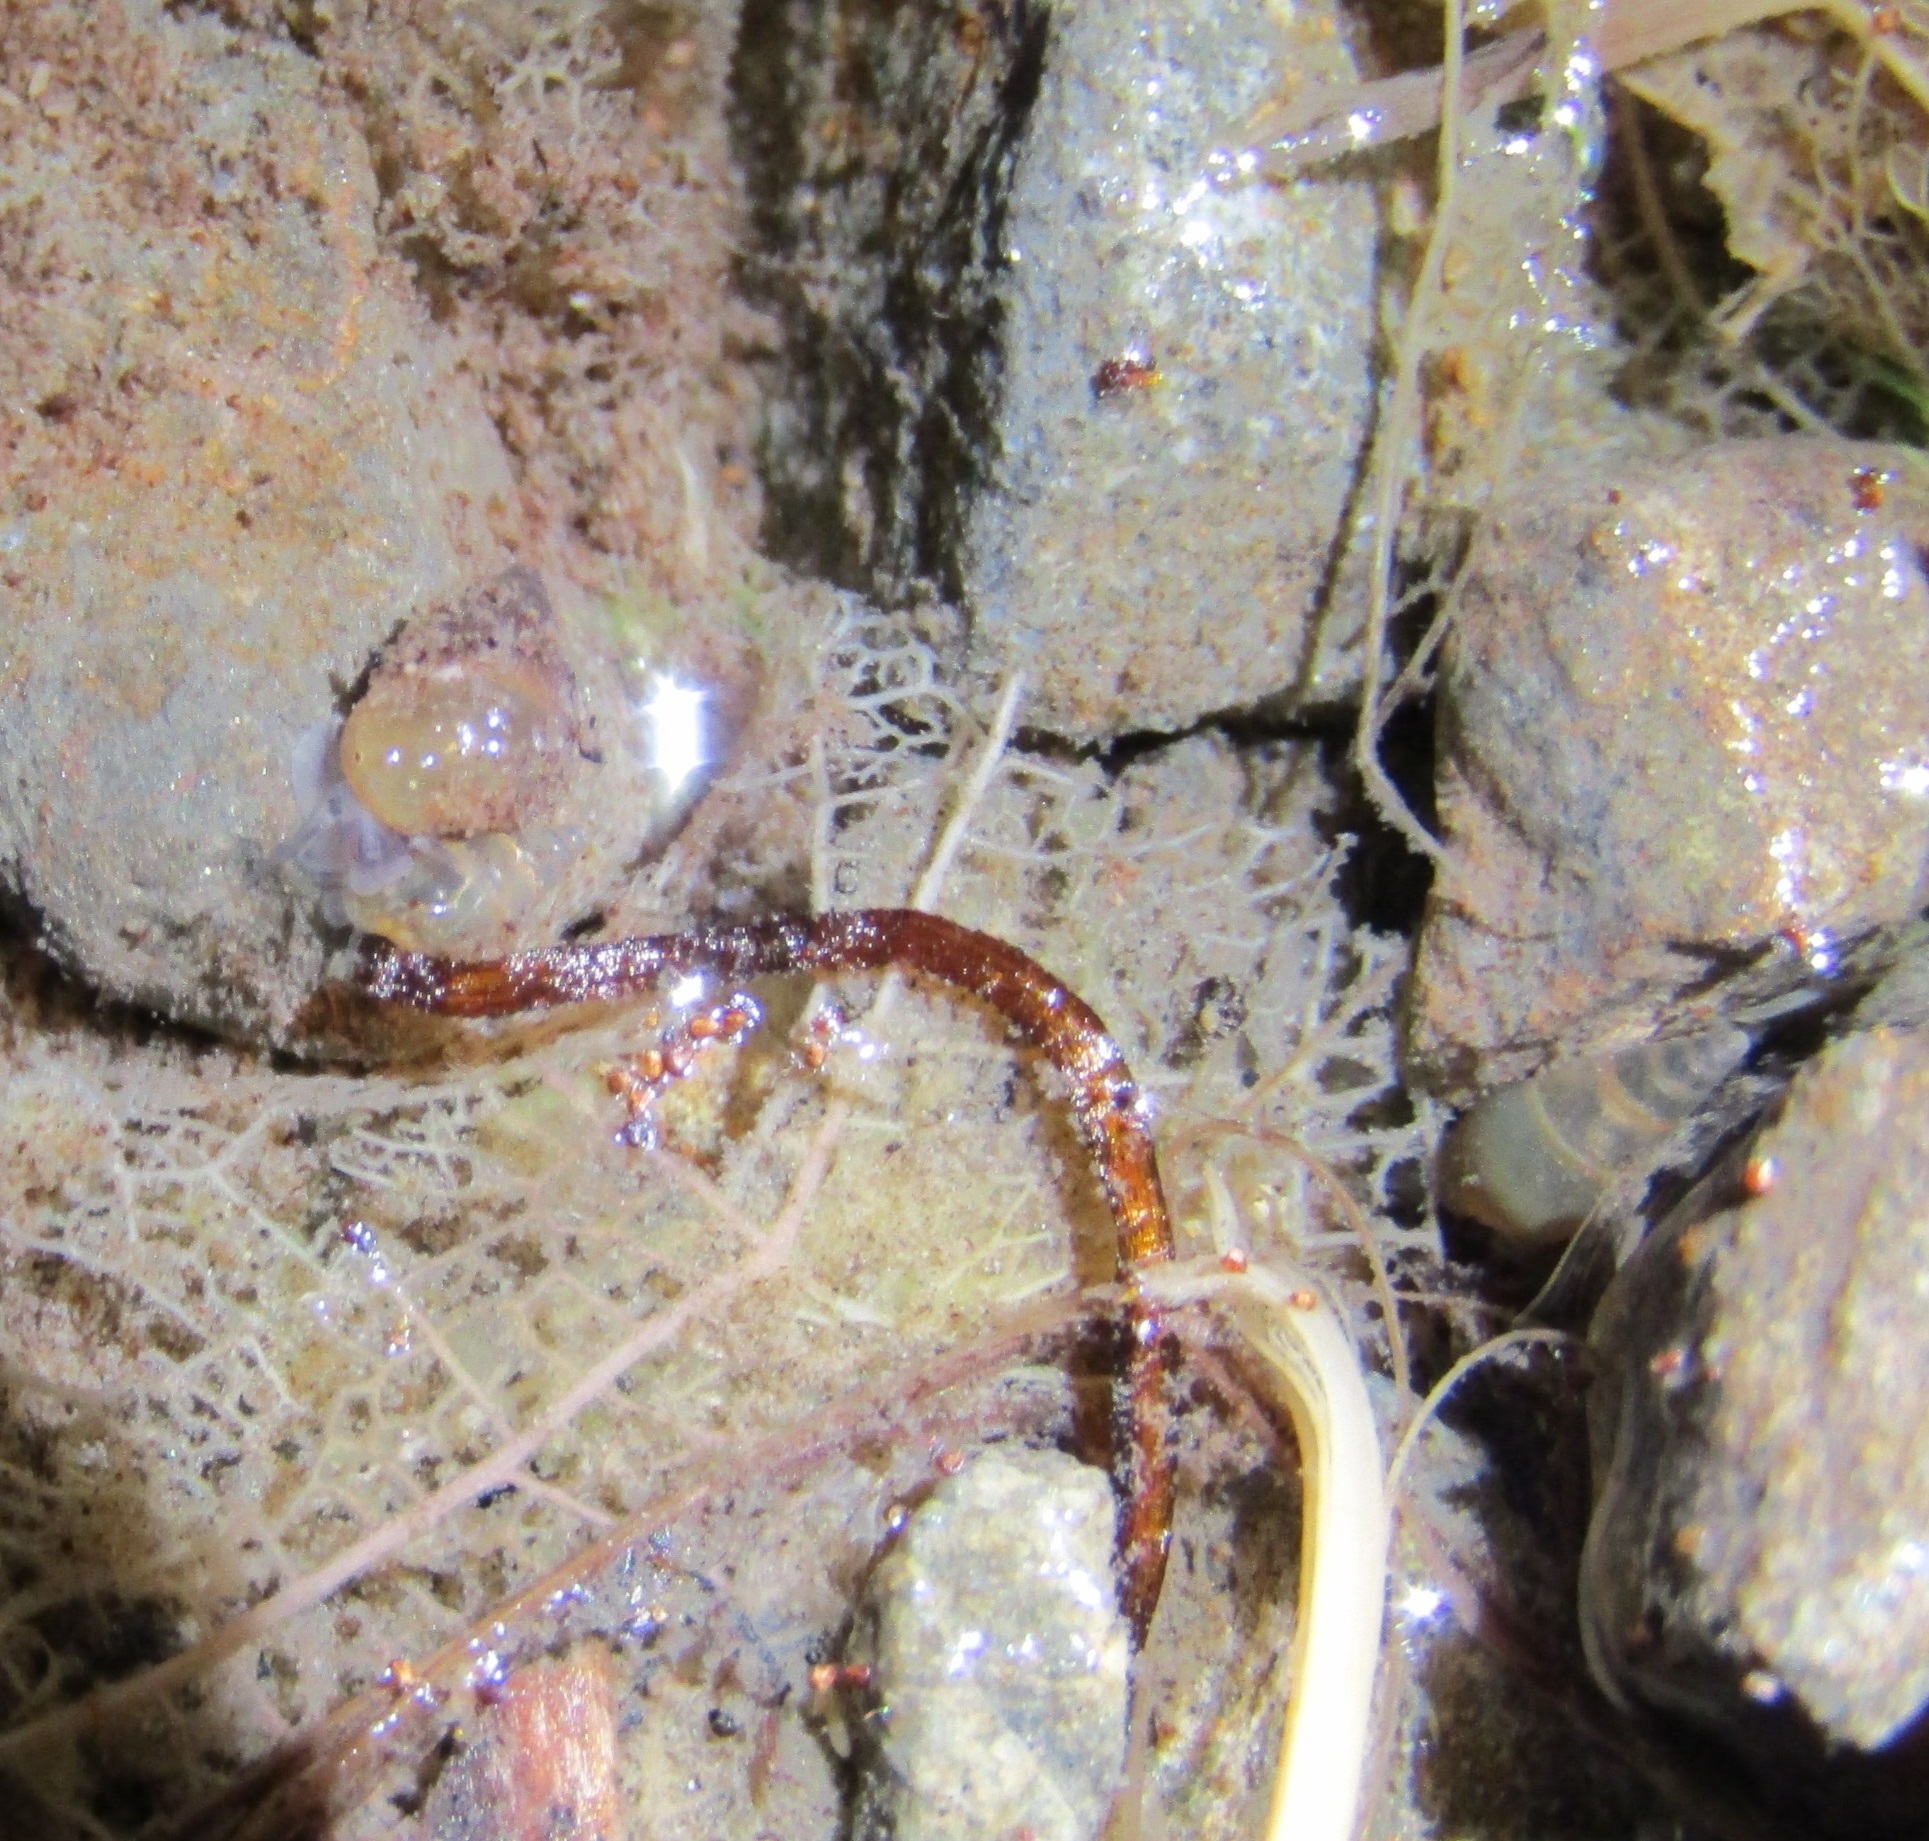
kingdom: Animalia
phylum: Mollusca
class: Gastropoda
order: Littorinimorpha
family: Tateidae
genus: Potamopyrgus
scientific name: Potamopyrgus antipodarum
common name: Jenkins' spire snail
